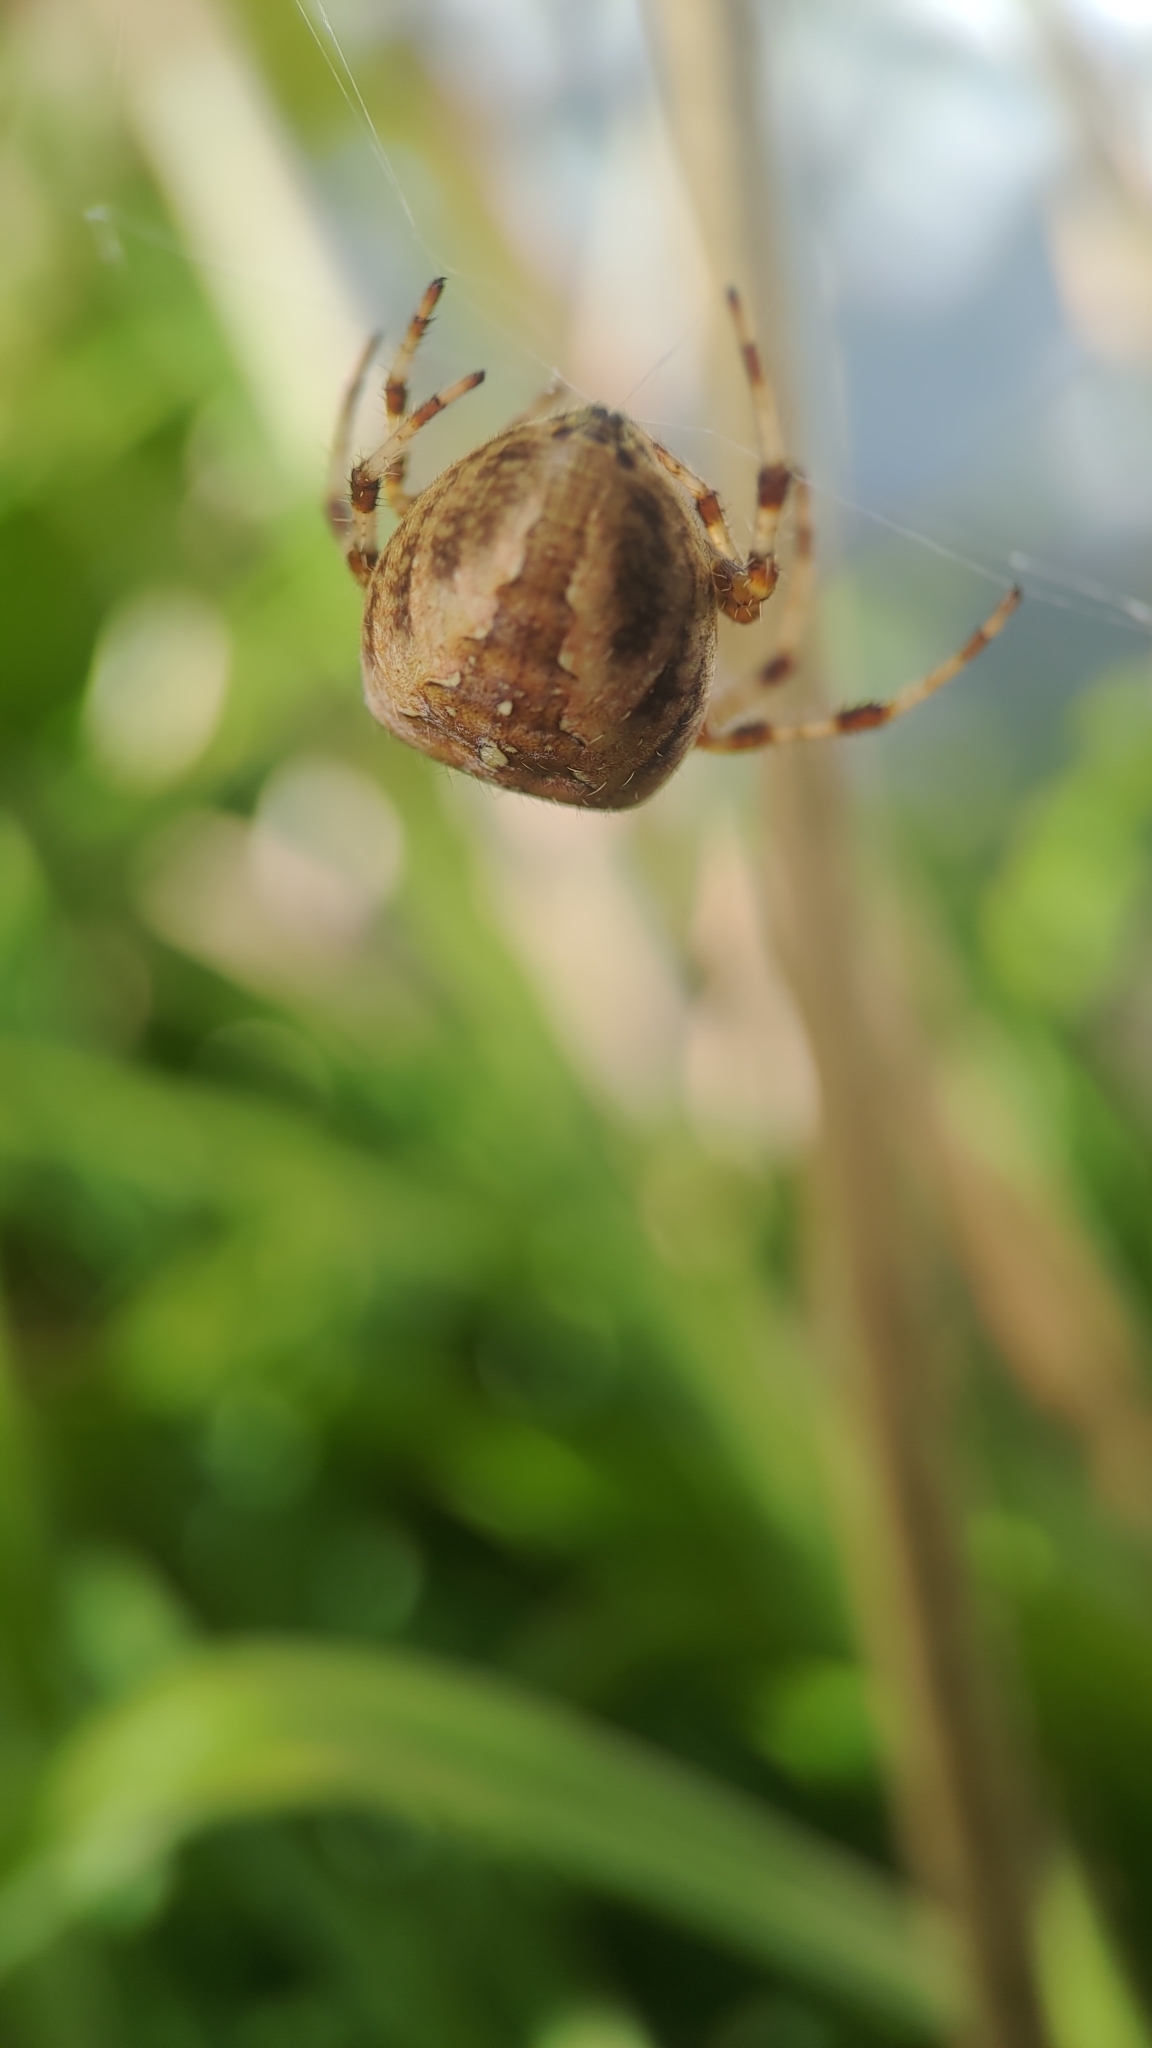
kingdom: Animalia
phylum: Arthropoda
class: Arachnida
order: Araneae
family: Araneidae
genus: Araneus
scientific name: Araneus diadematus
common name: Cross orbweaver
